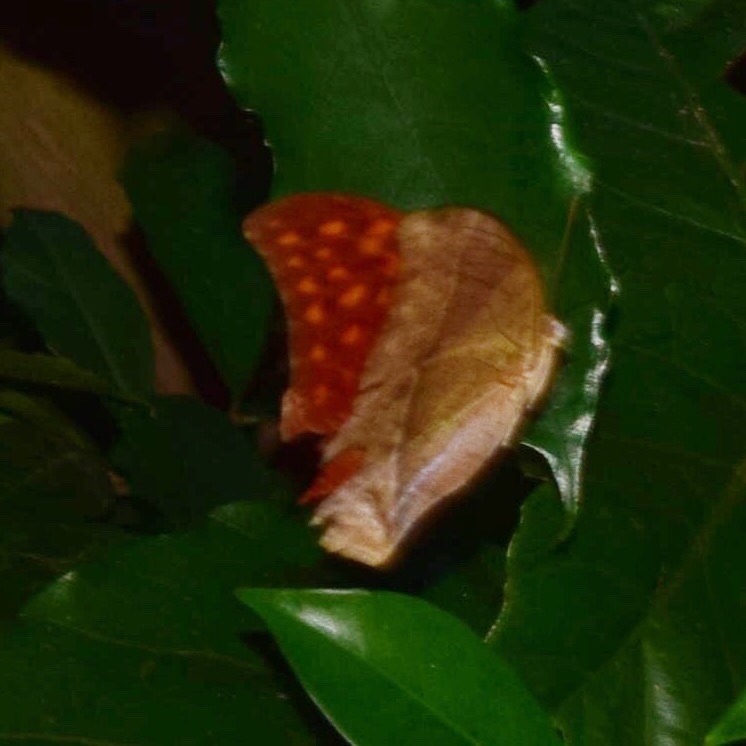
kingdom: Animalia
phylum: Arthropoda
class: Insecta
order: Lepidoptera
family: Nymphalidae
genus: Charaxes
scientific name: Charaxes varanes
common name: Common pearl charaxes
